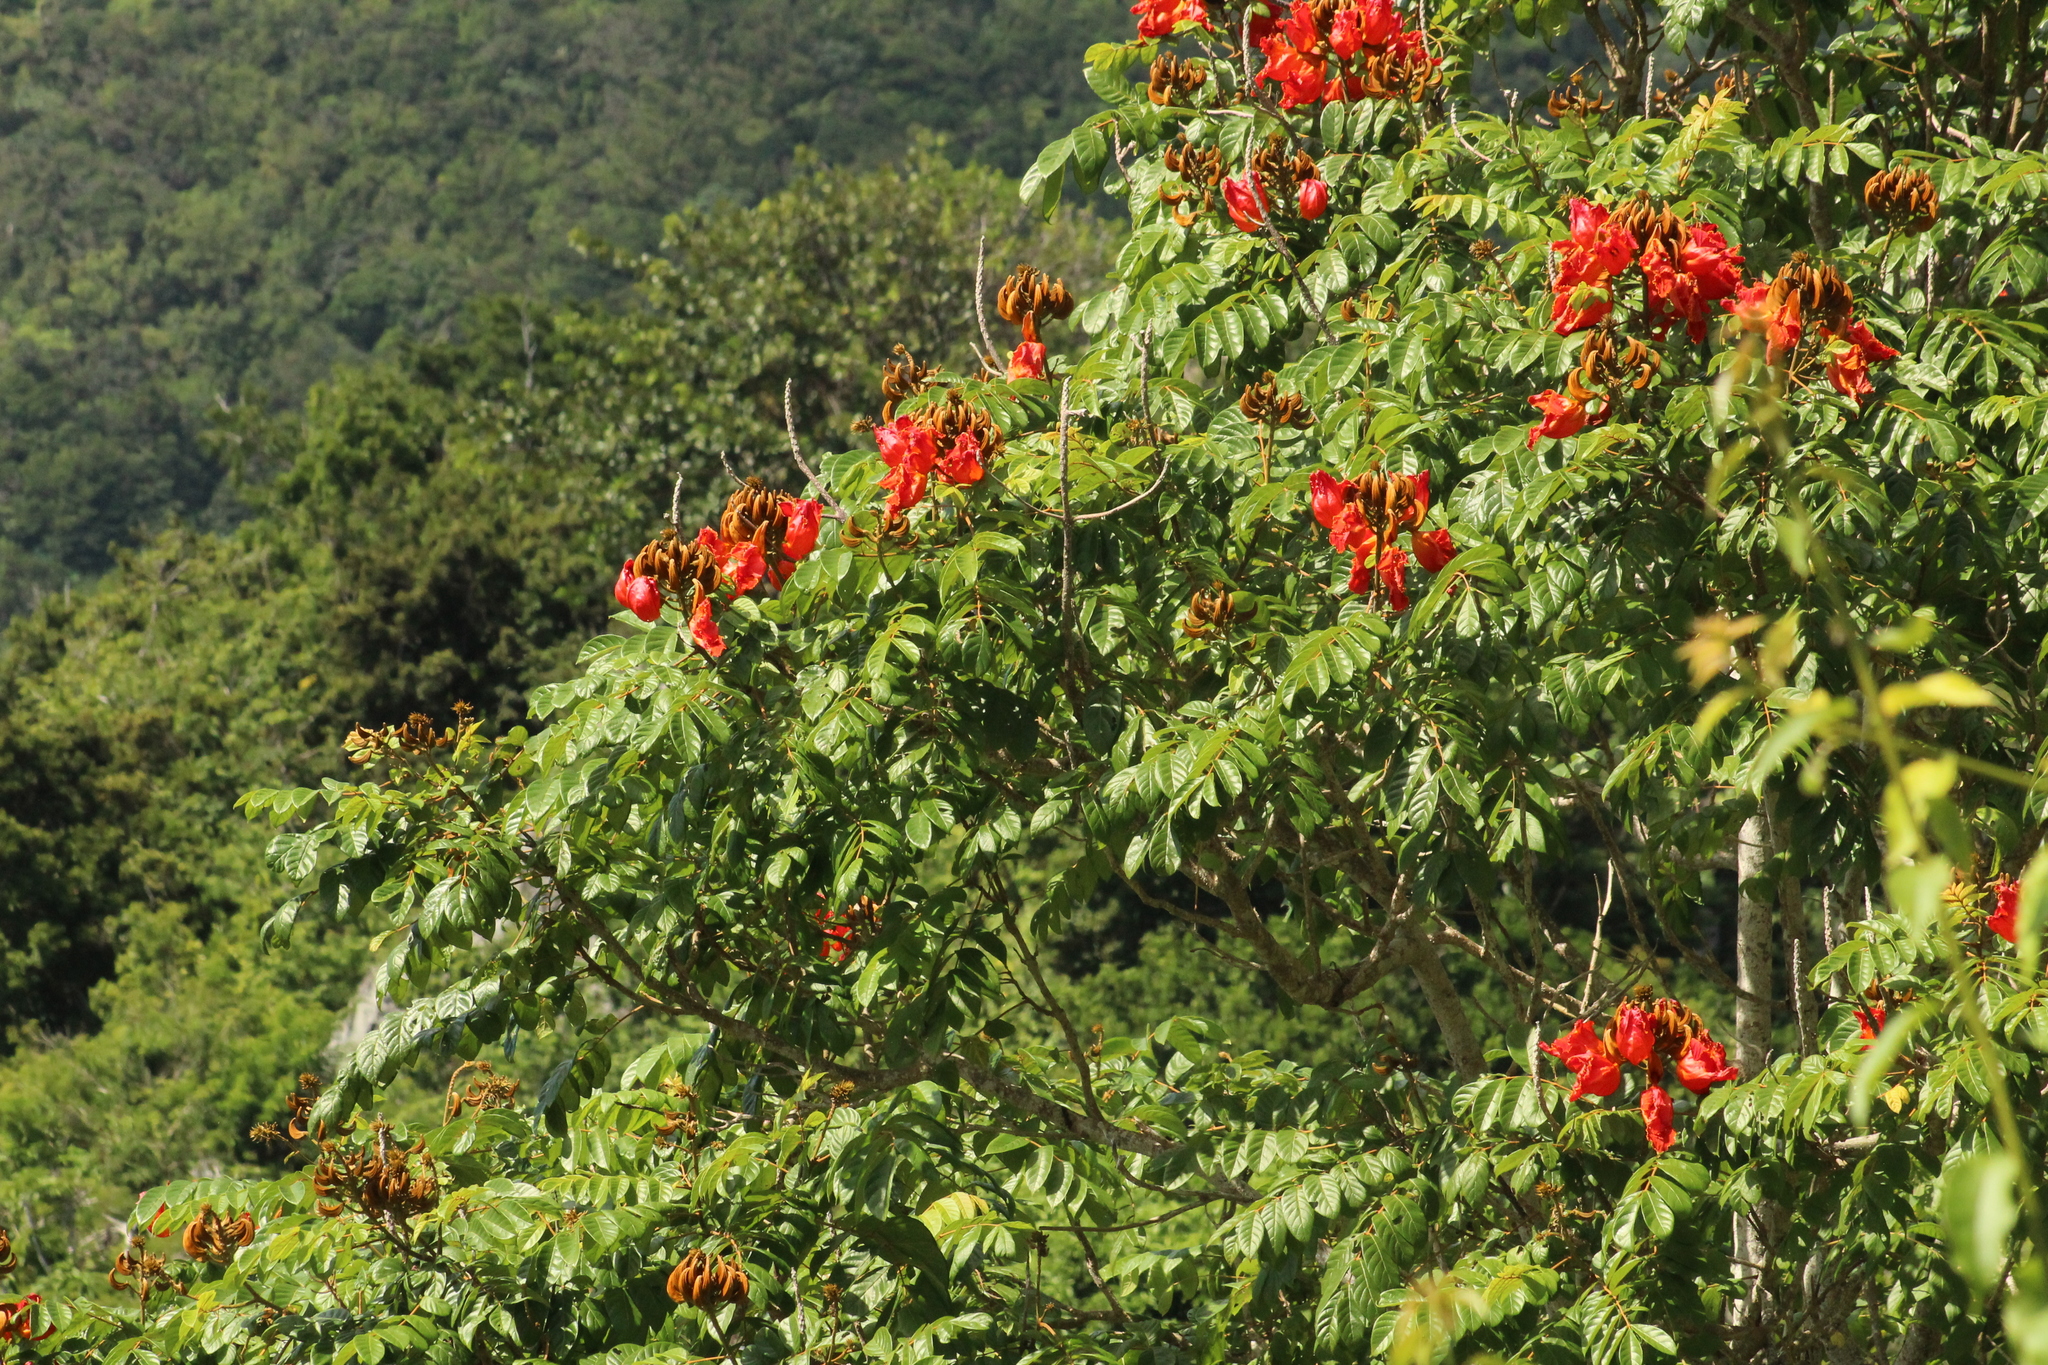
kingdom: Plantae
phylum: Tracheophyta
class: Magnoliopsida
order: Lamiales
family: Bignoniaceae
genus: Spathodea
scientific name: Spathodea campanulata
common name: African tuliptree
